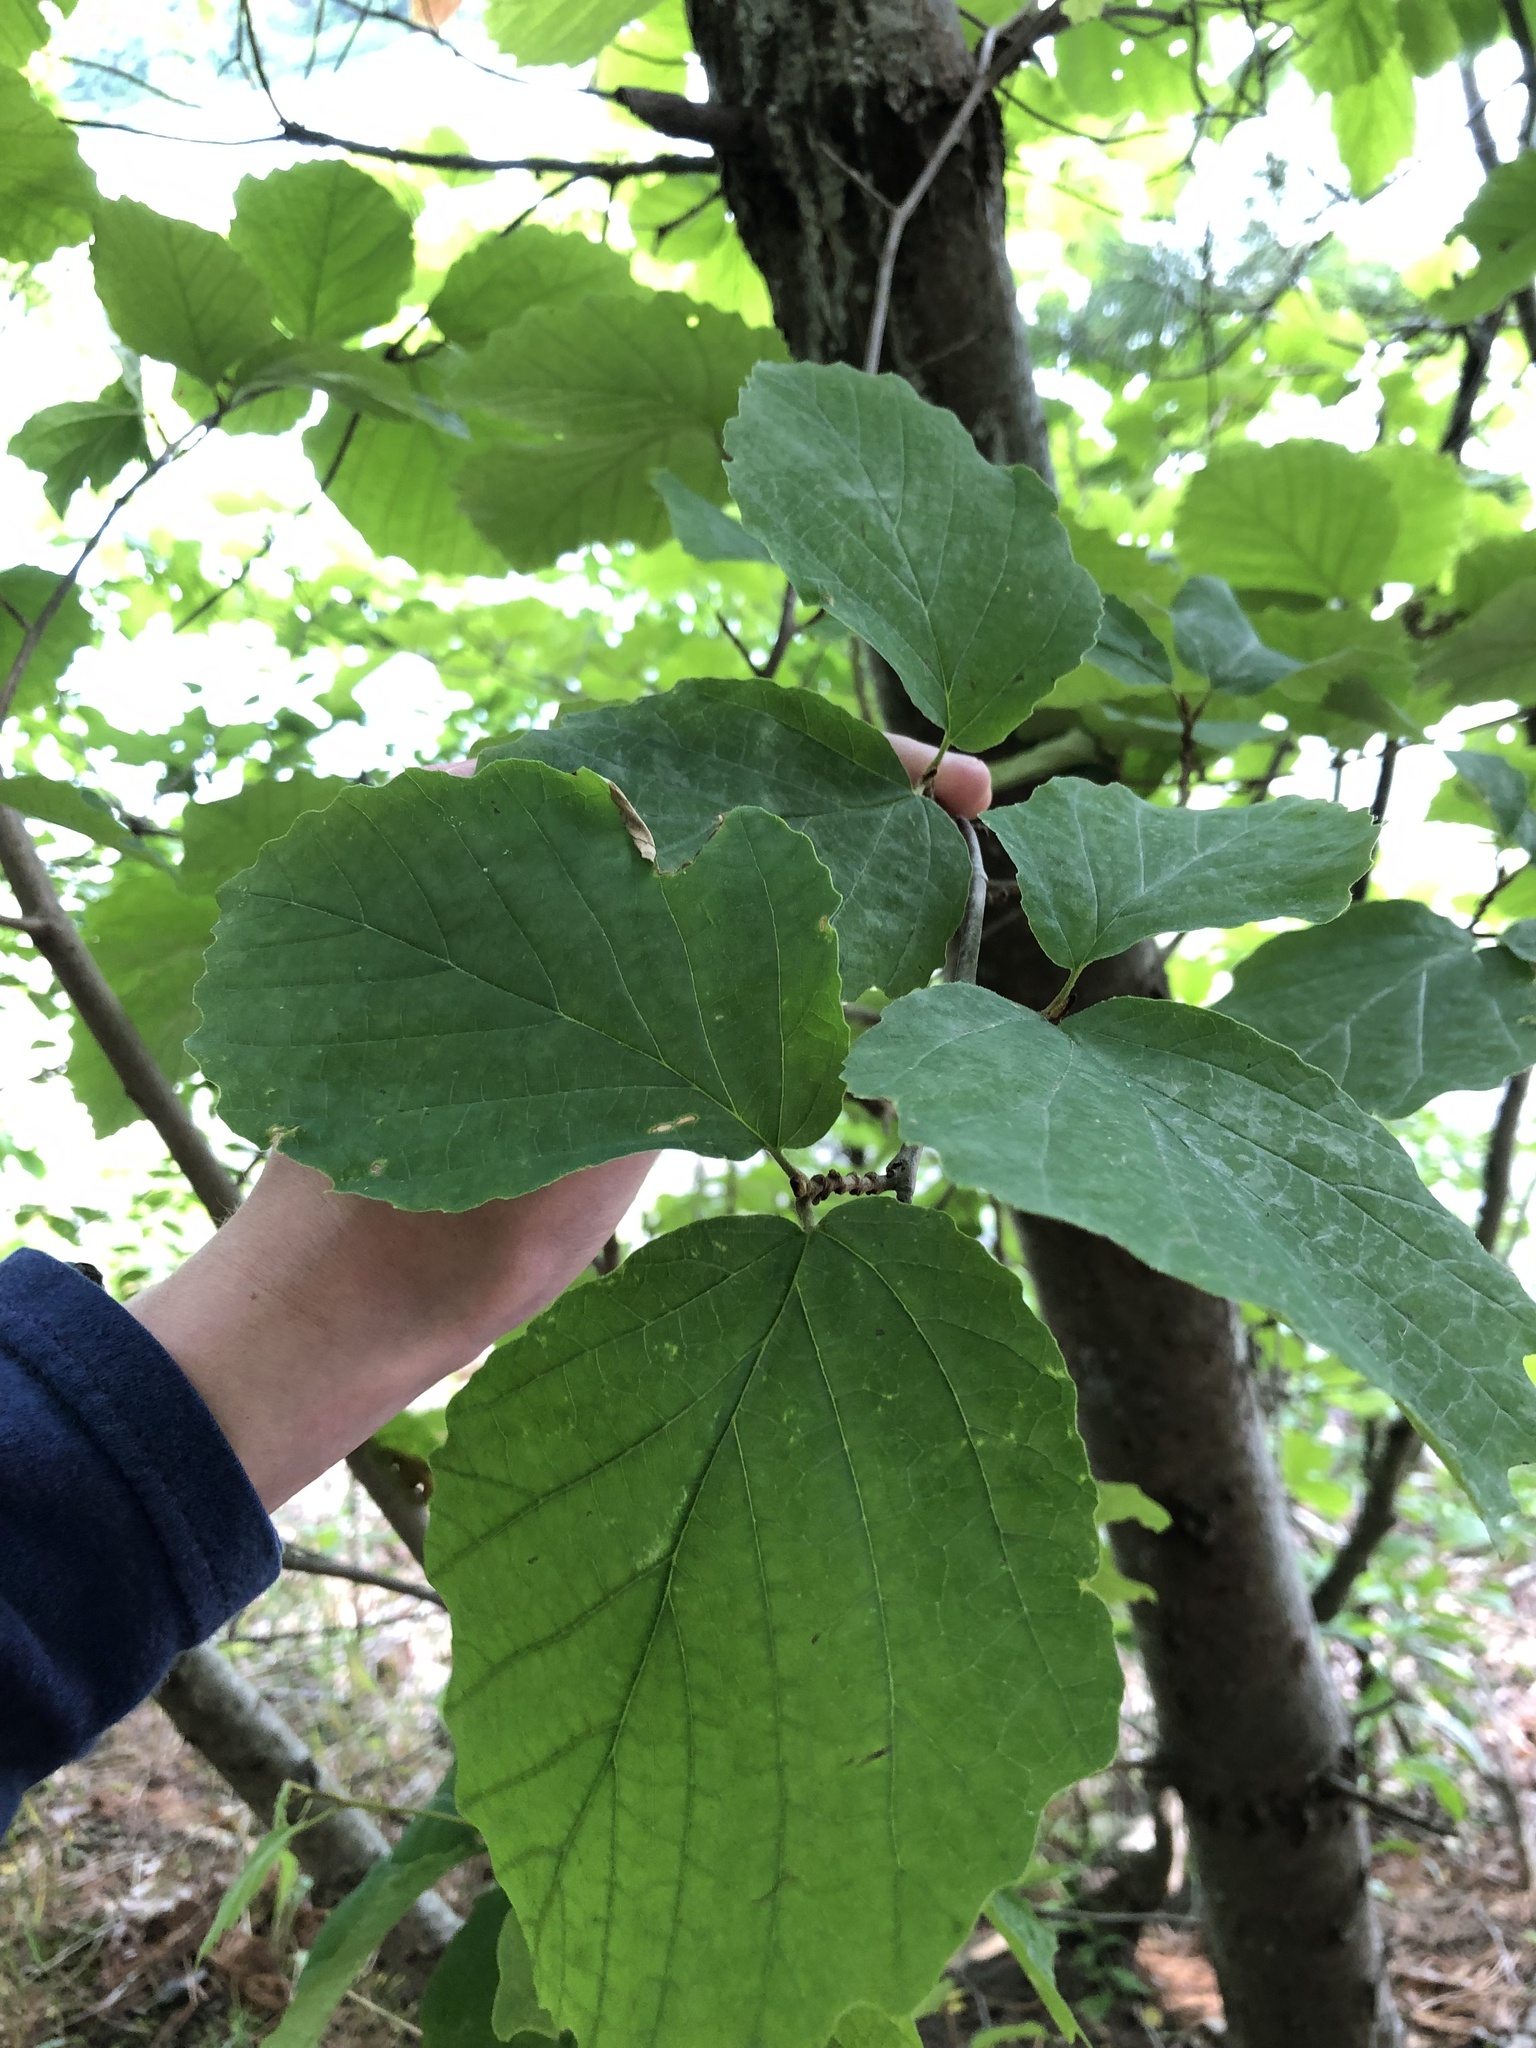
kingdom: Plantae
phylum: Tracheophyta
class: Magnoliopsida
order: Saxifragales
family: Hamamelidaceae
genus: Hamamelis
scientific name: Hamamelis virginiana
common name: Witch-hazel
